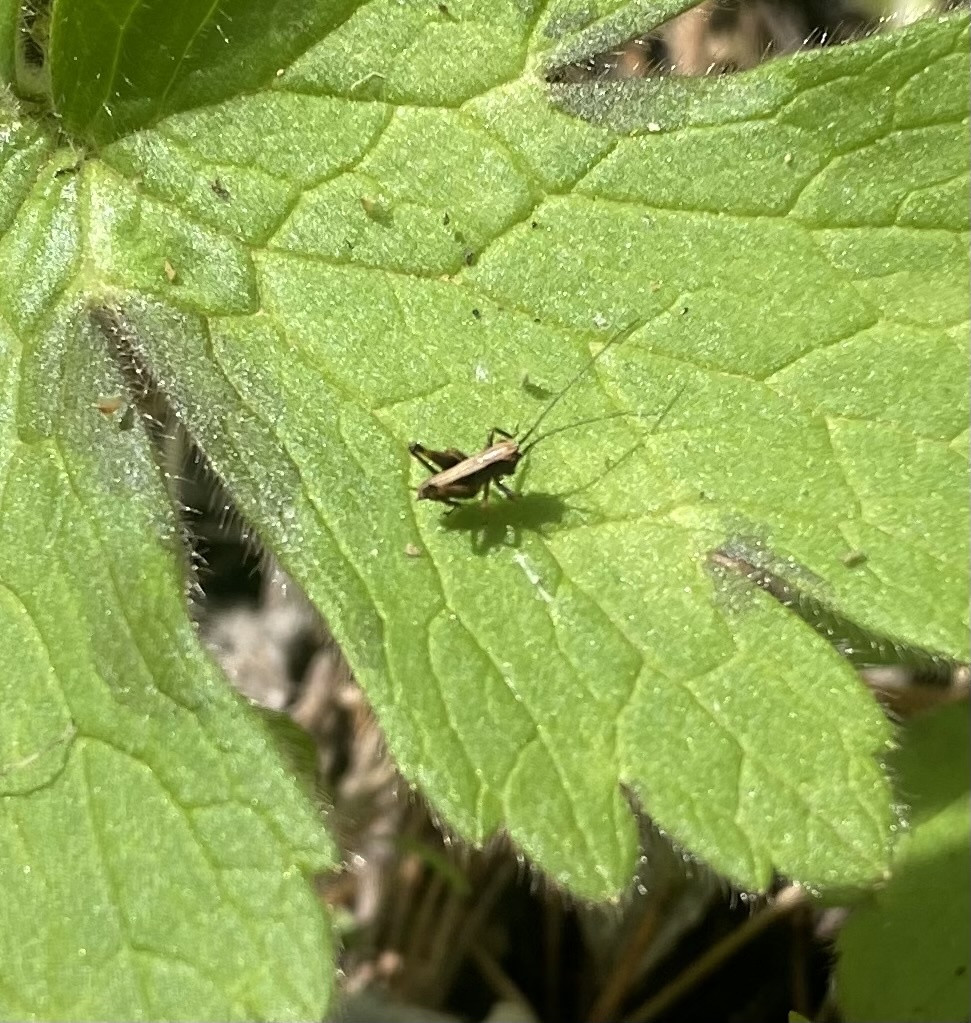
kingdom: Animalia
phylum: Arthropoda
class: Insecta
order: Orthoptera
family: Tettigoniidae
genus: Pholidoptera
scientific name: Pholidoptera griseoaptera
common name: Dark bush-cricket
